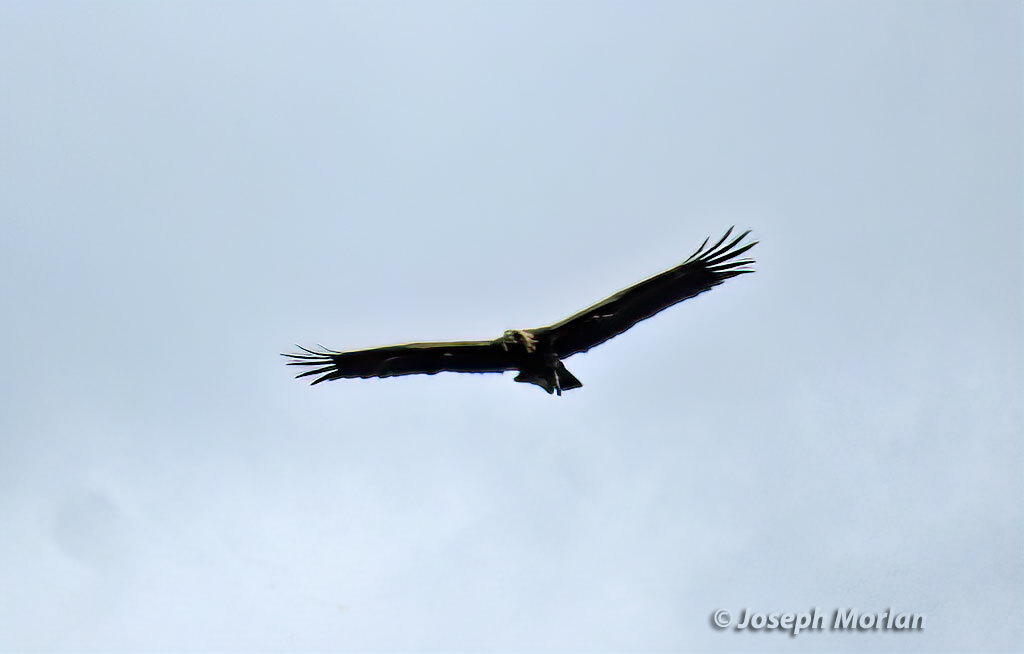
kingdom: Animalia
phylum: Chordata
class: Aves
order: Accipitriformes
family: Accipitridae
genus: Aquila
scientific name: Aquila chrysaetos
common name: Golden eagle
